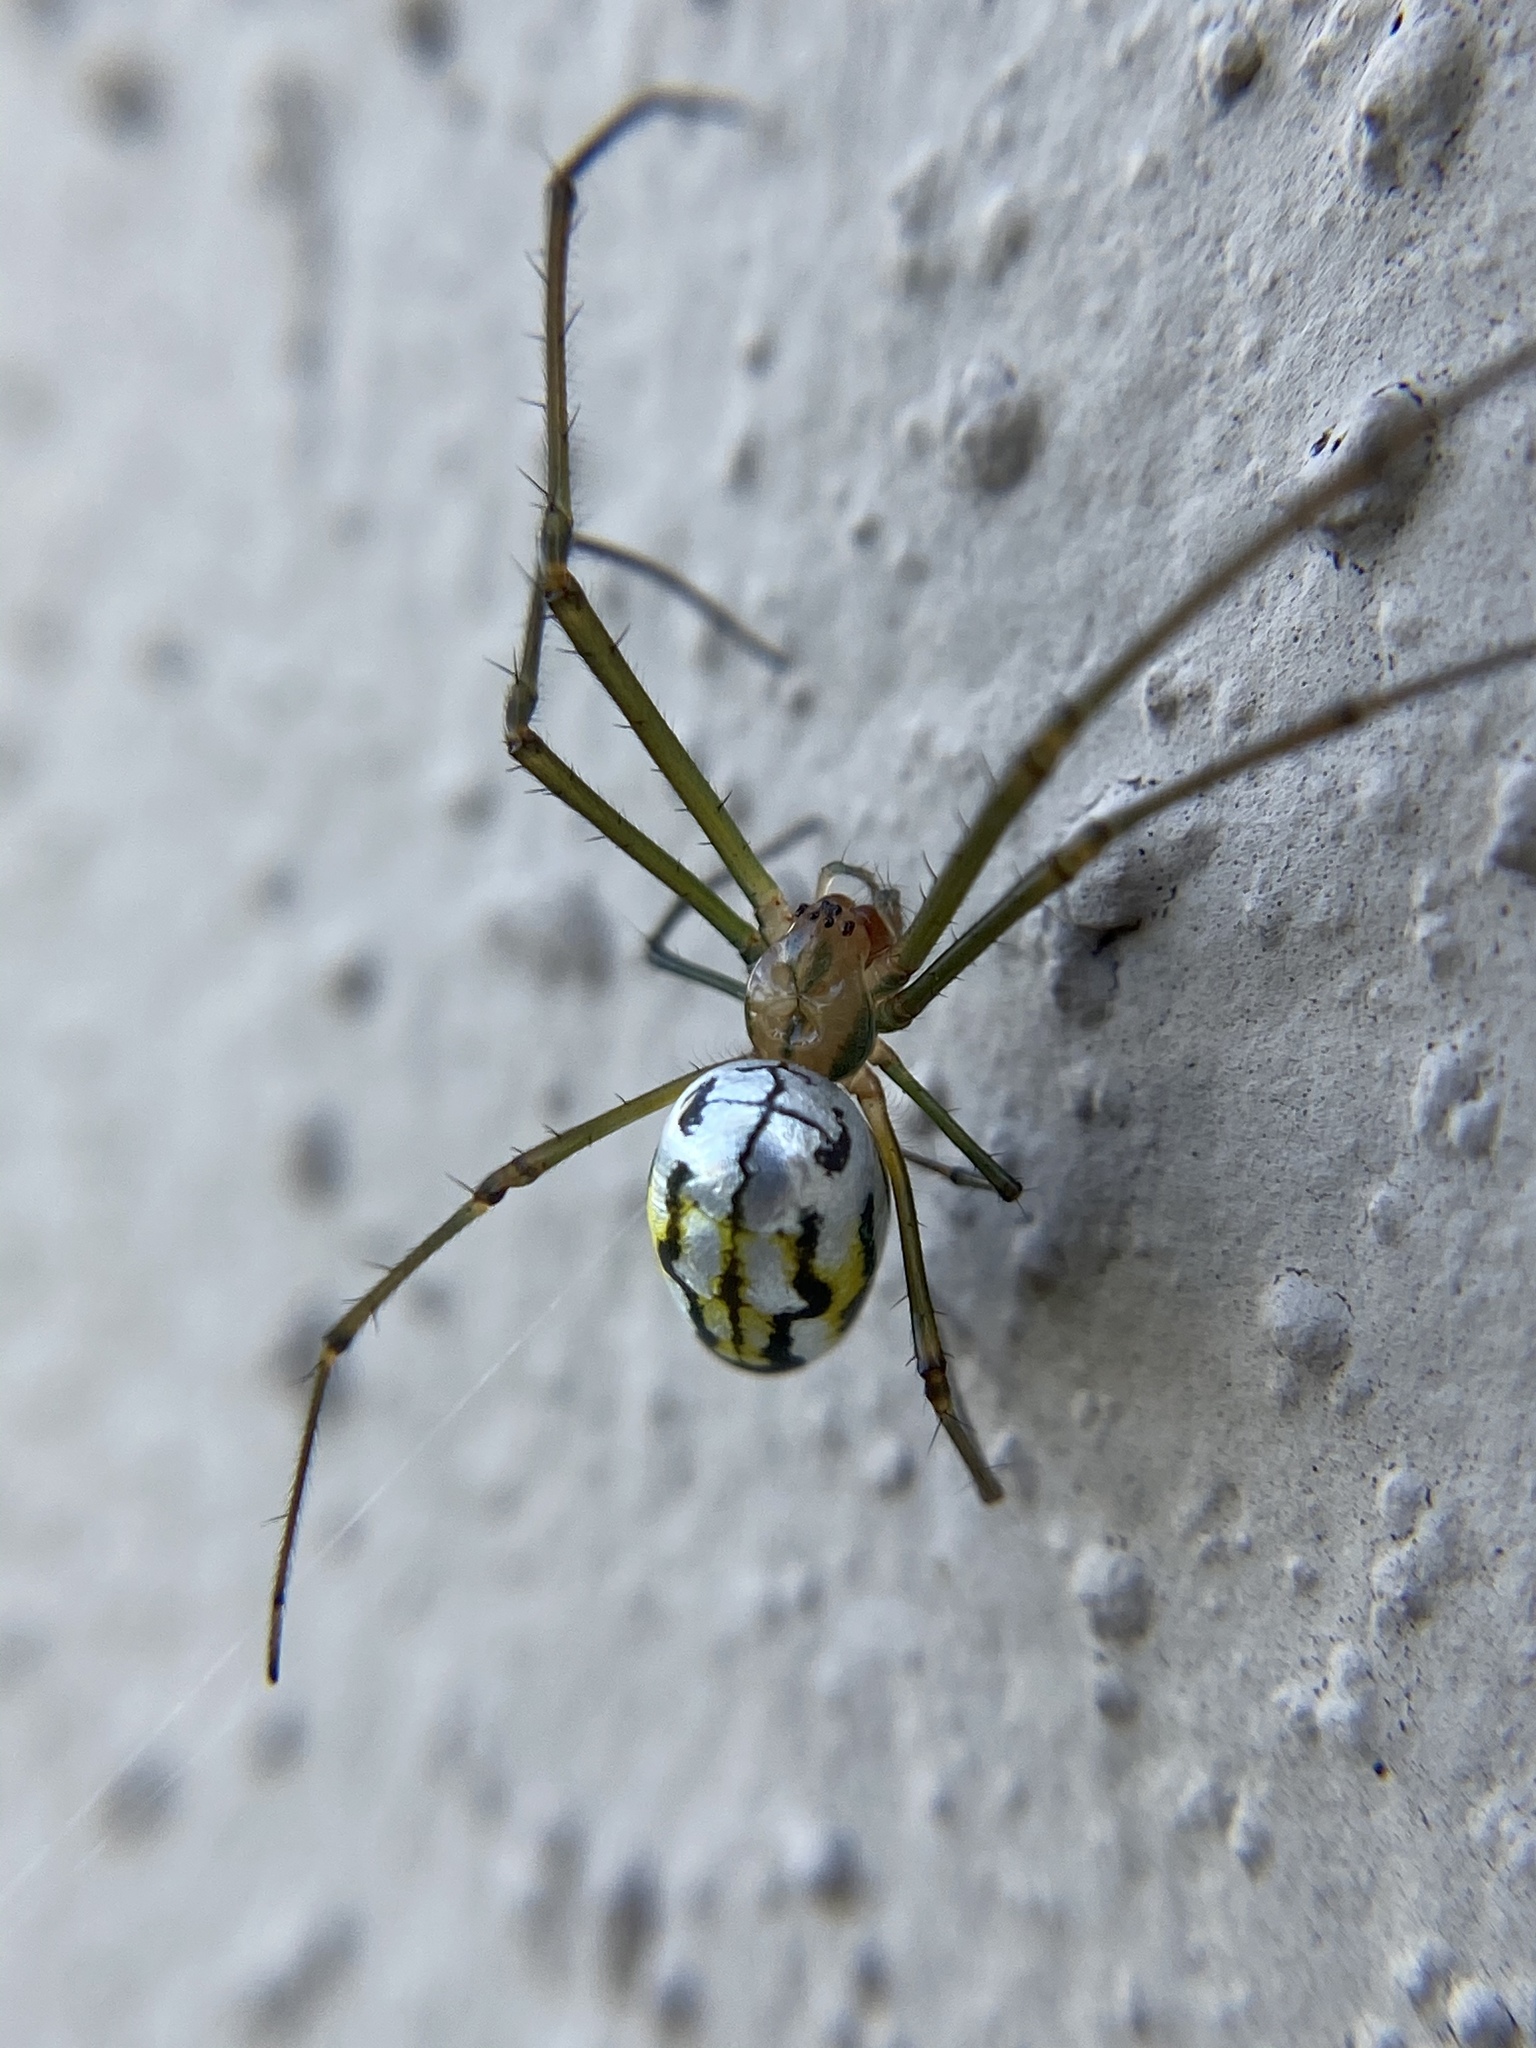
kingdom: Animalia
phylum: Arthropoda
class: Arachnida
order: Araneae
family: Tetragnathidae
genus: Leucauge
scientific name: Leucauge argyra
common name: Longjawed orb weavers
